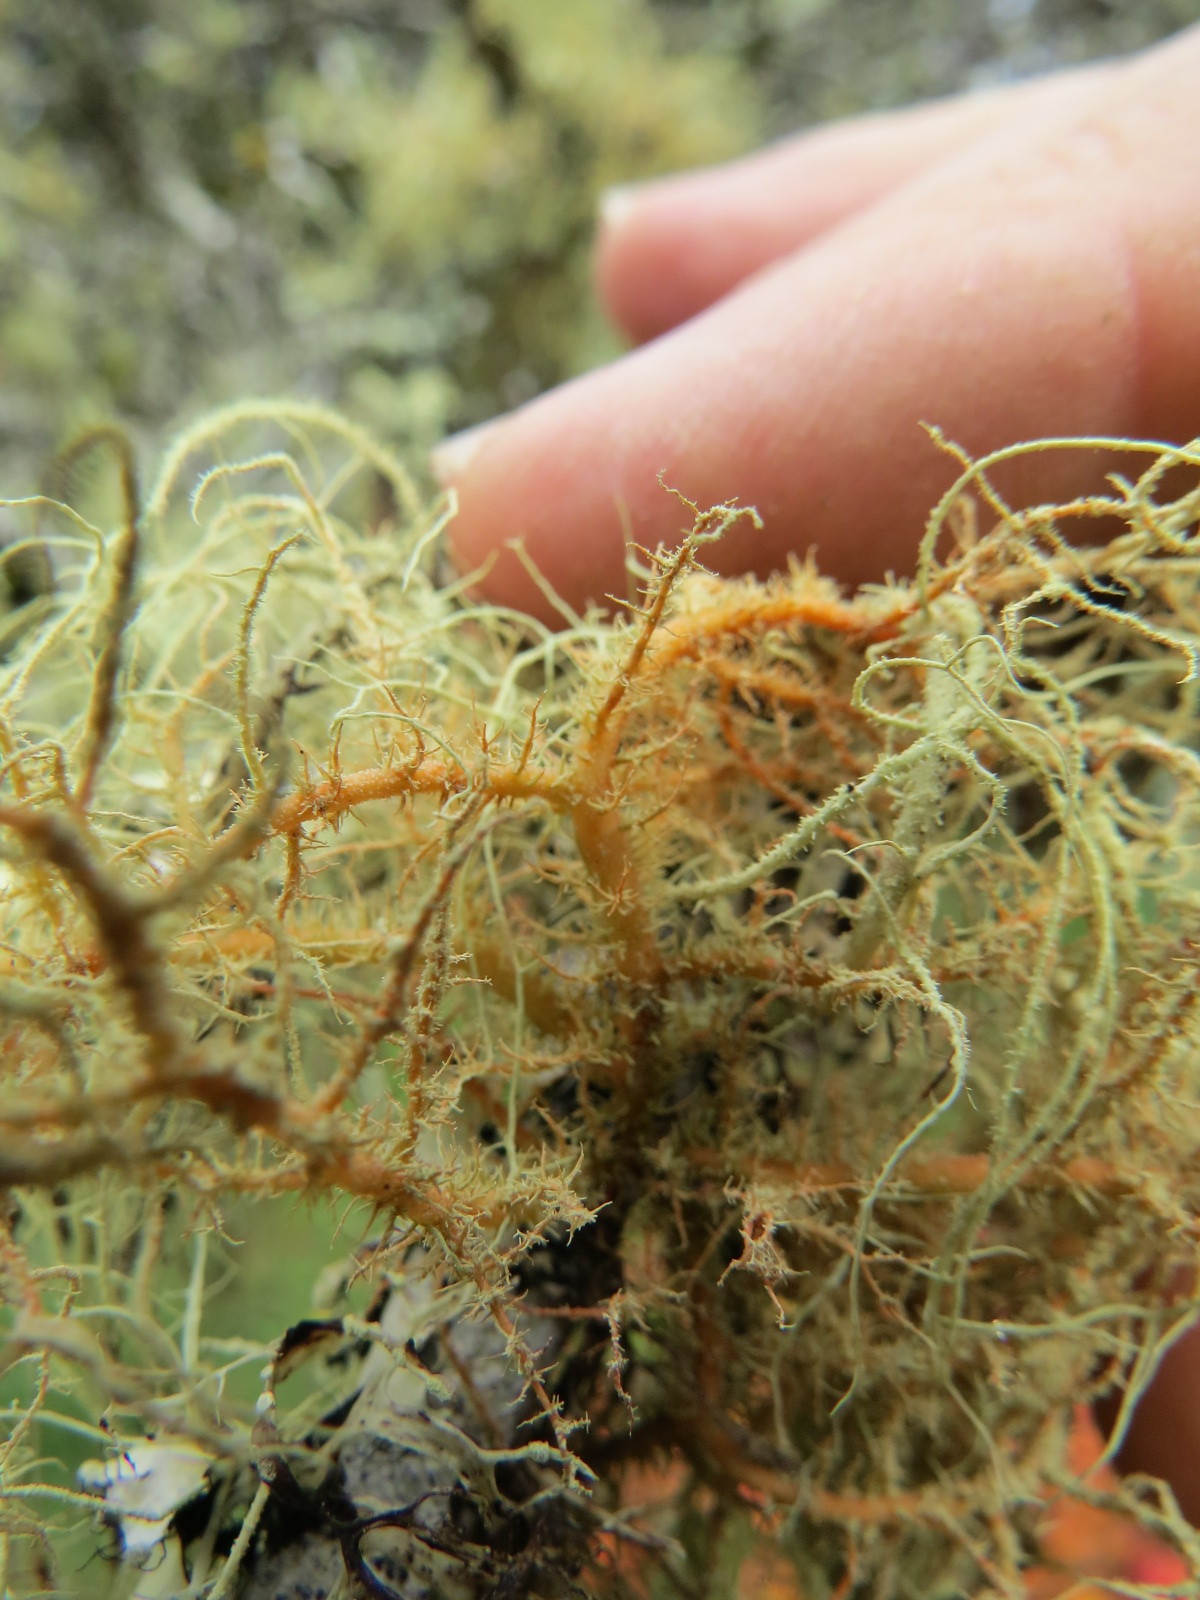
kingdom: Fungi
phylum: Ascomycota
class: Lecanoromycetes
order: Lecanorales
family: Parmeliaceae
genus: Usnea
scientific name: Usnea rubicunda
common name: Red beard lichen
